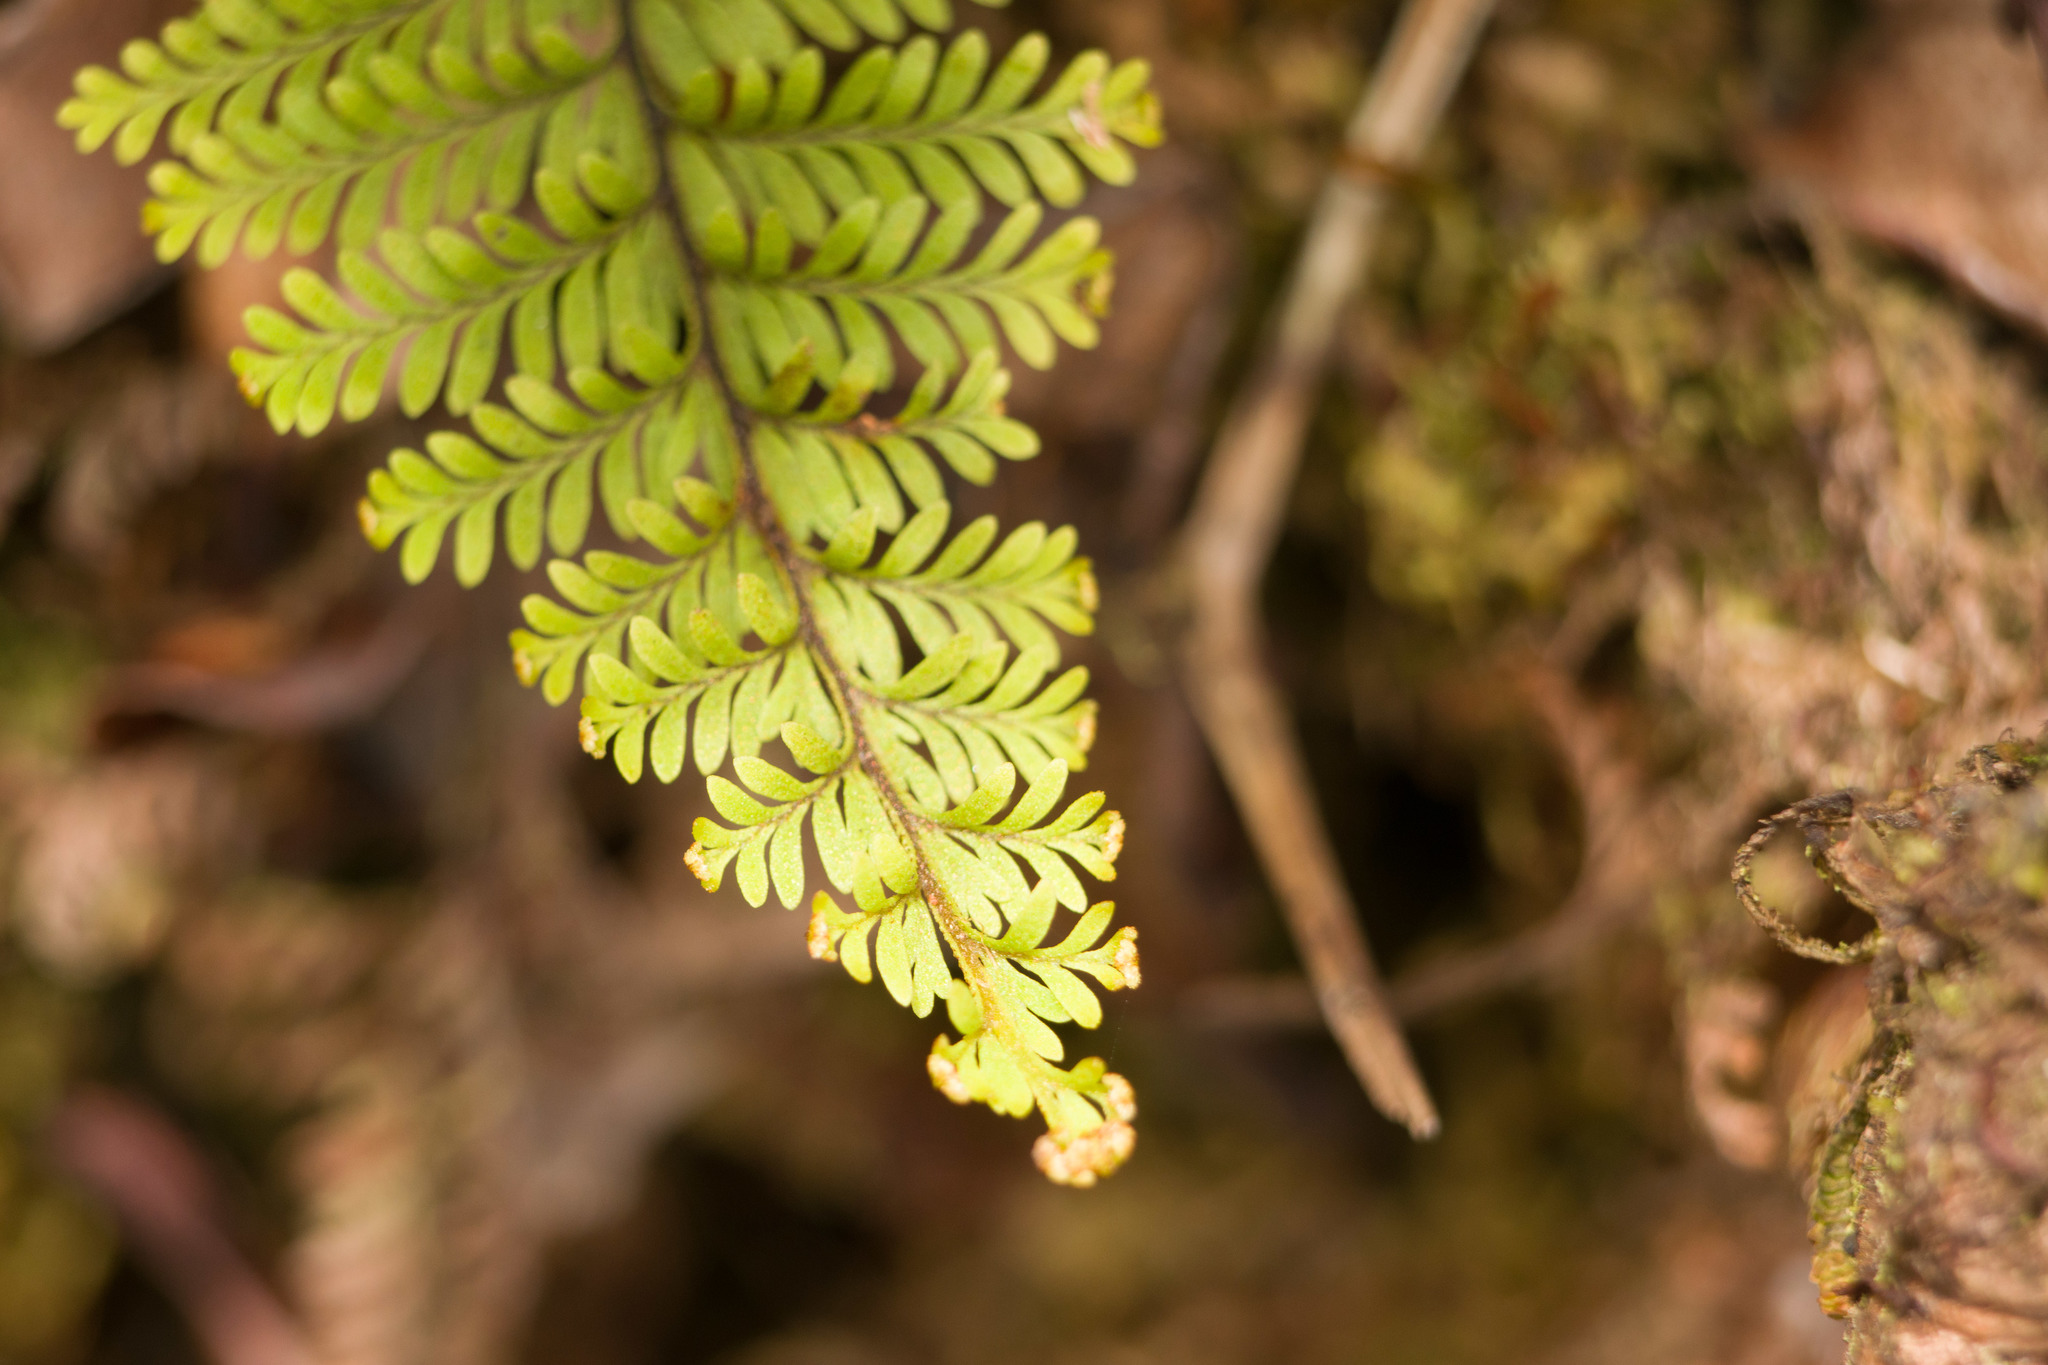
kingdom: Plantae
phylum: Tracheophyta
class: Polypodiopsida
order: Polypodiales
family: Polypodiaceae
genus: Adenophorus
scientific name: Adenophorus tamariscinus
